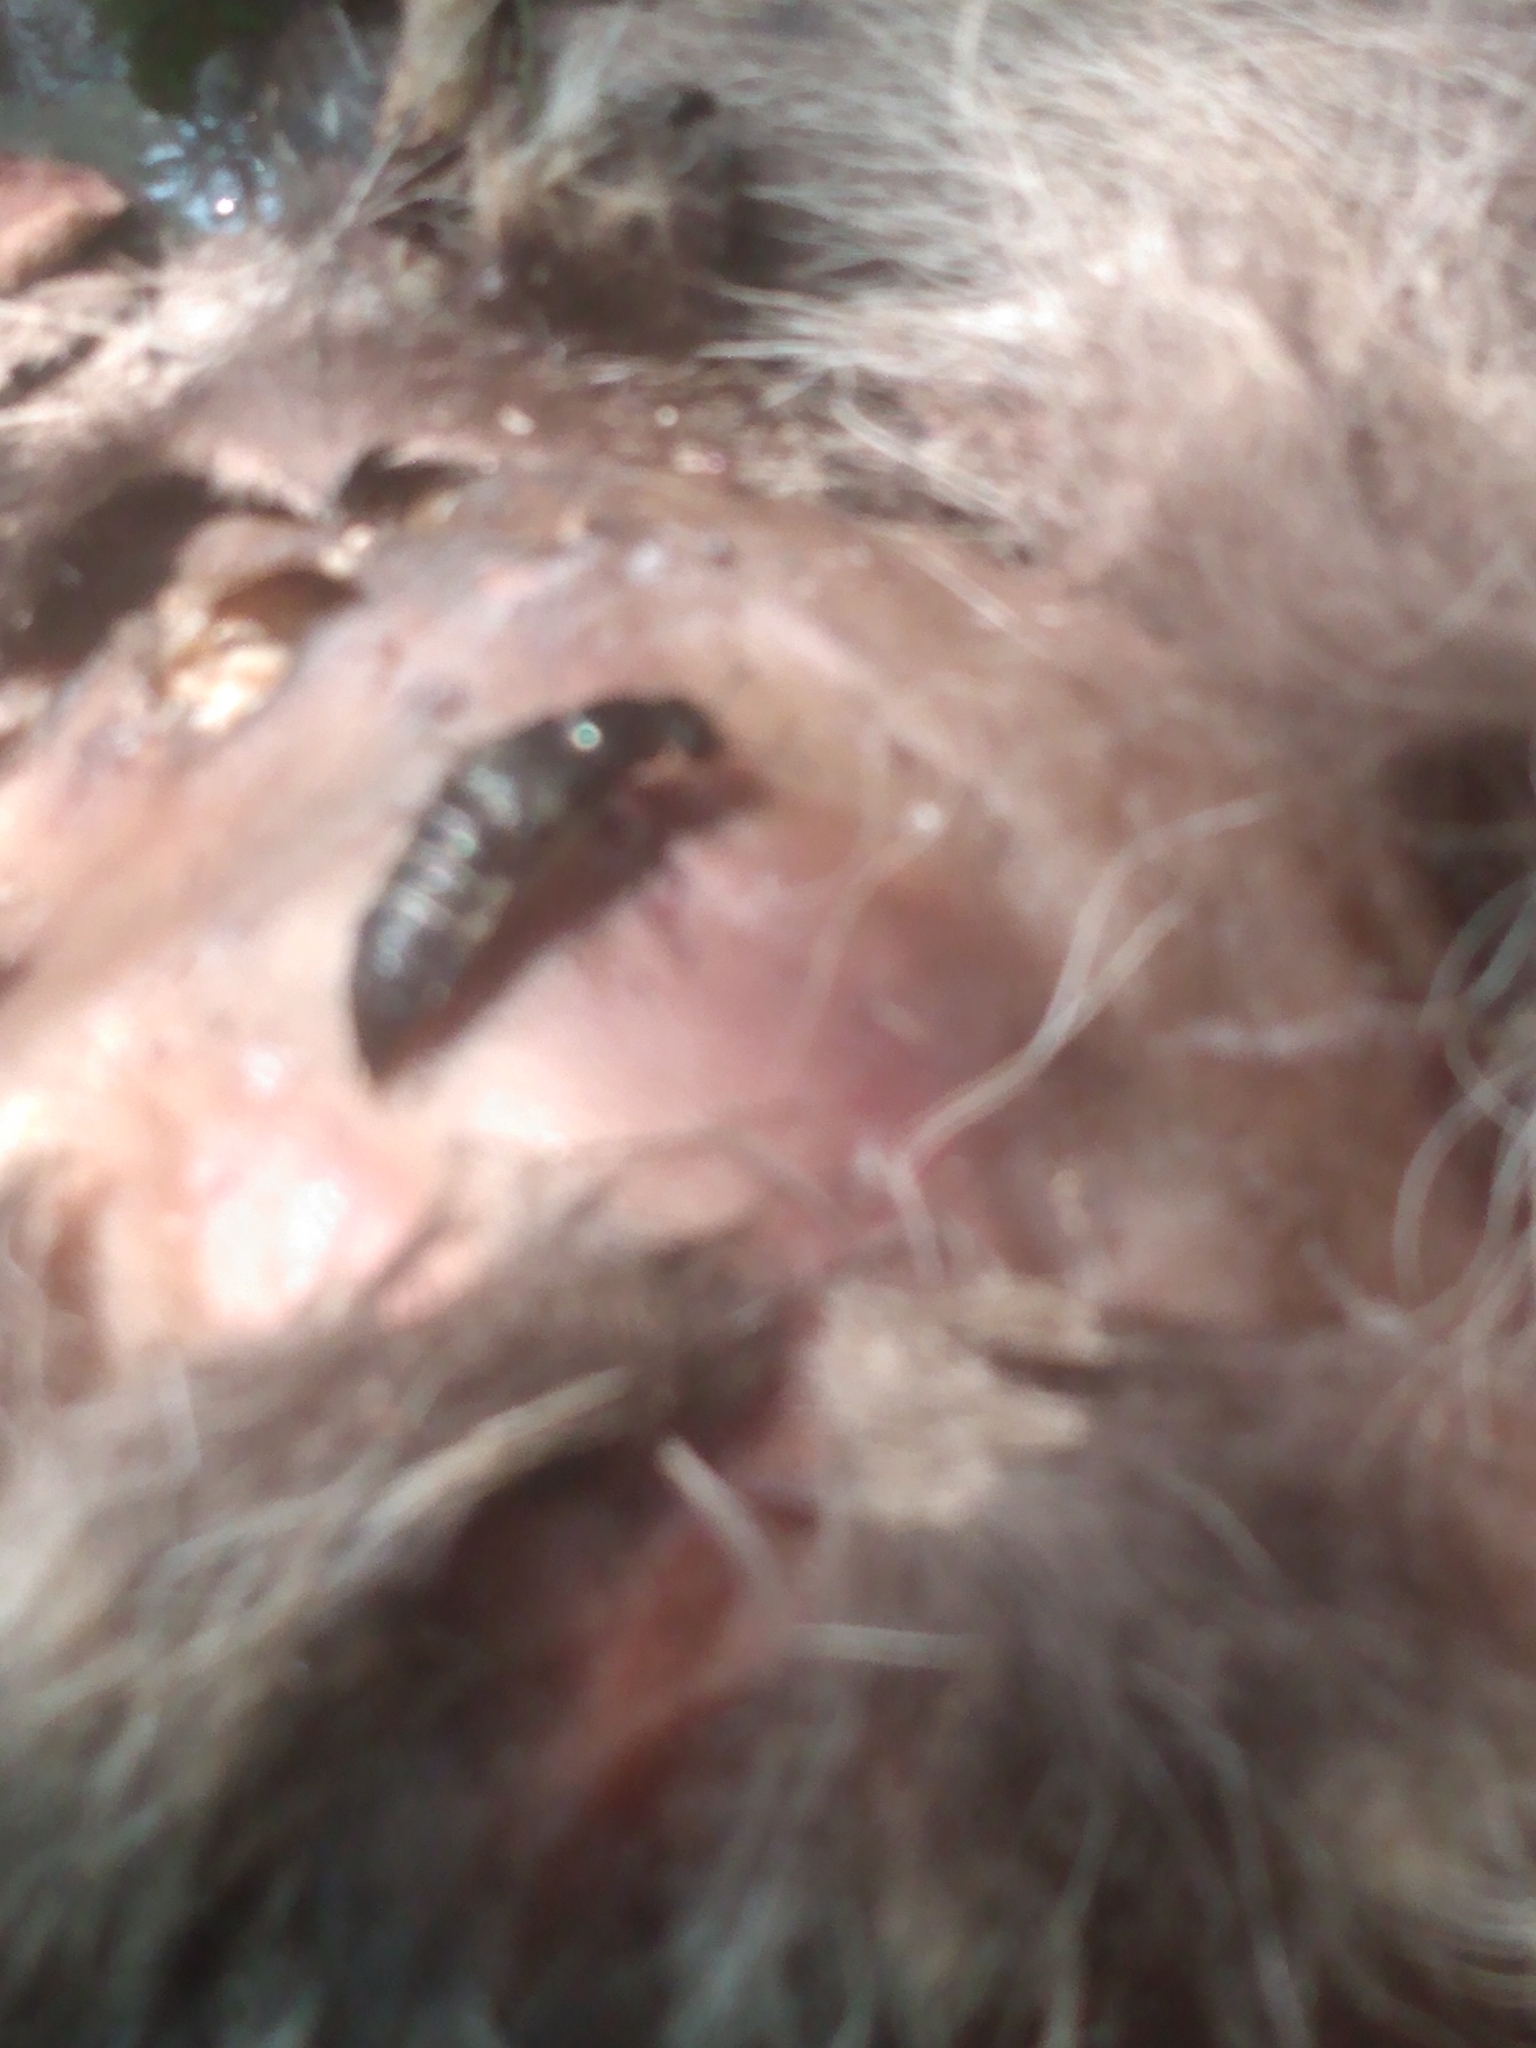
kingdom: Animalia
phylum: Arthropoda
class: Insecta
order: Coleoptera
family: Staphylinidae
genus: Creophilus
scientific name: Creophilus maxillosus
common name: Hairy rove beetle
